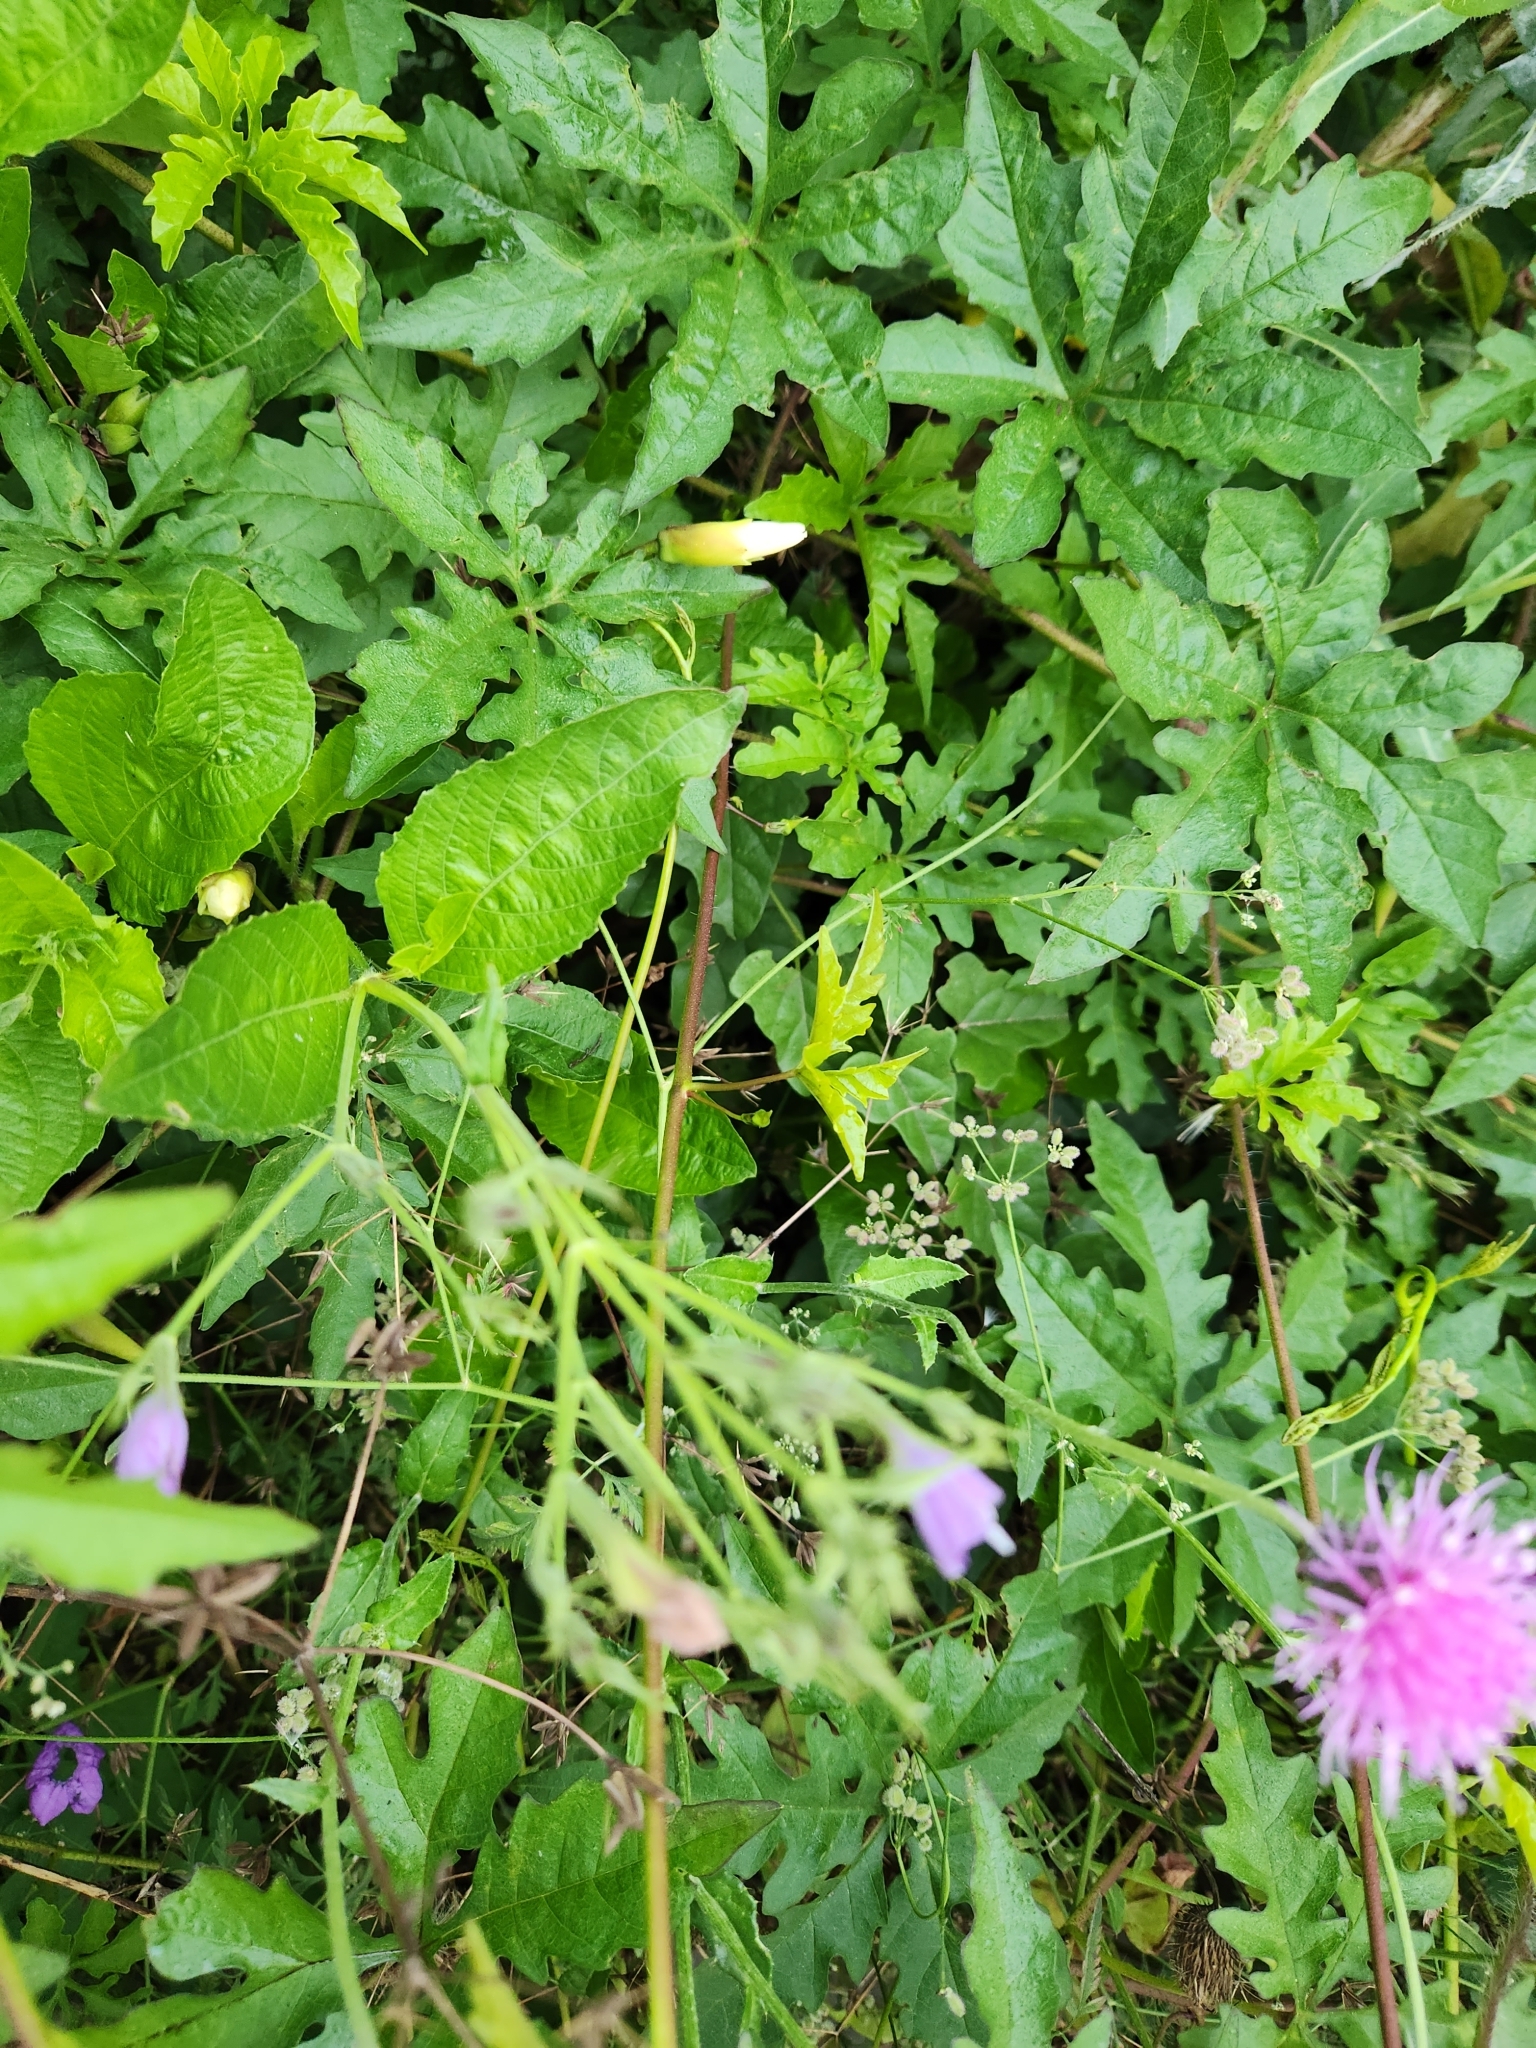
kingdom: Plantae
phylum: Tracheophyta
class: Magnoliopsida
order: Lamiales
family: Acanthaceae
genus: Ruellia
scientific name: Ruellia ciliatiflora
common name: Hairyflower wild petunia
